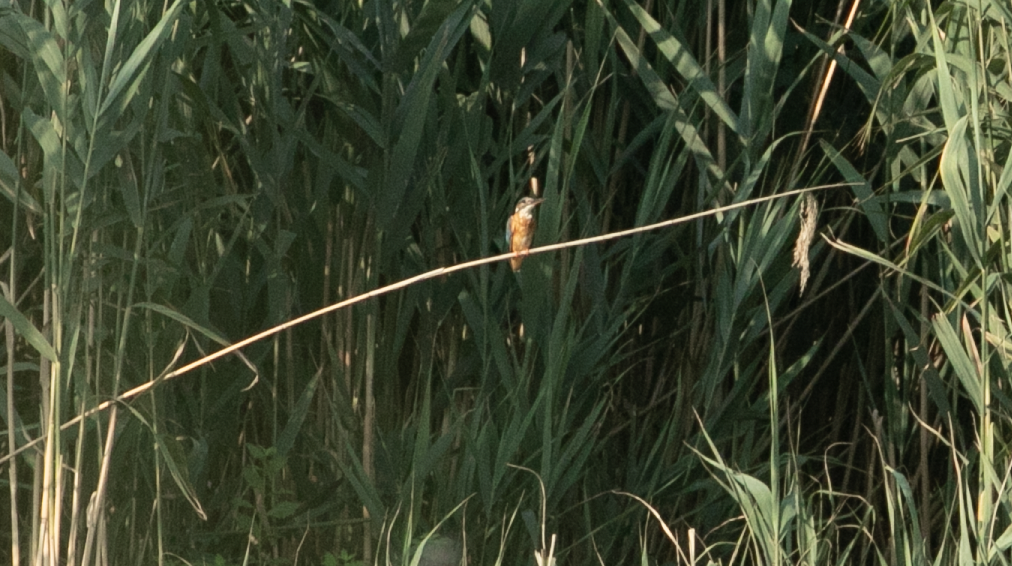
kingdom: Animalia
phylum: Chordata
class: Aves
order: Coraciiformes
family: Alcedinidae
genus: Alcedo
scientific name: Alcedo atthis
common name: Common kingfisher
